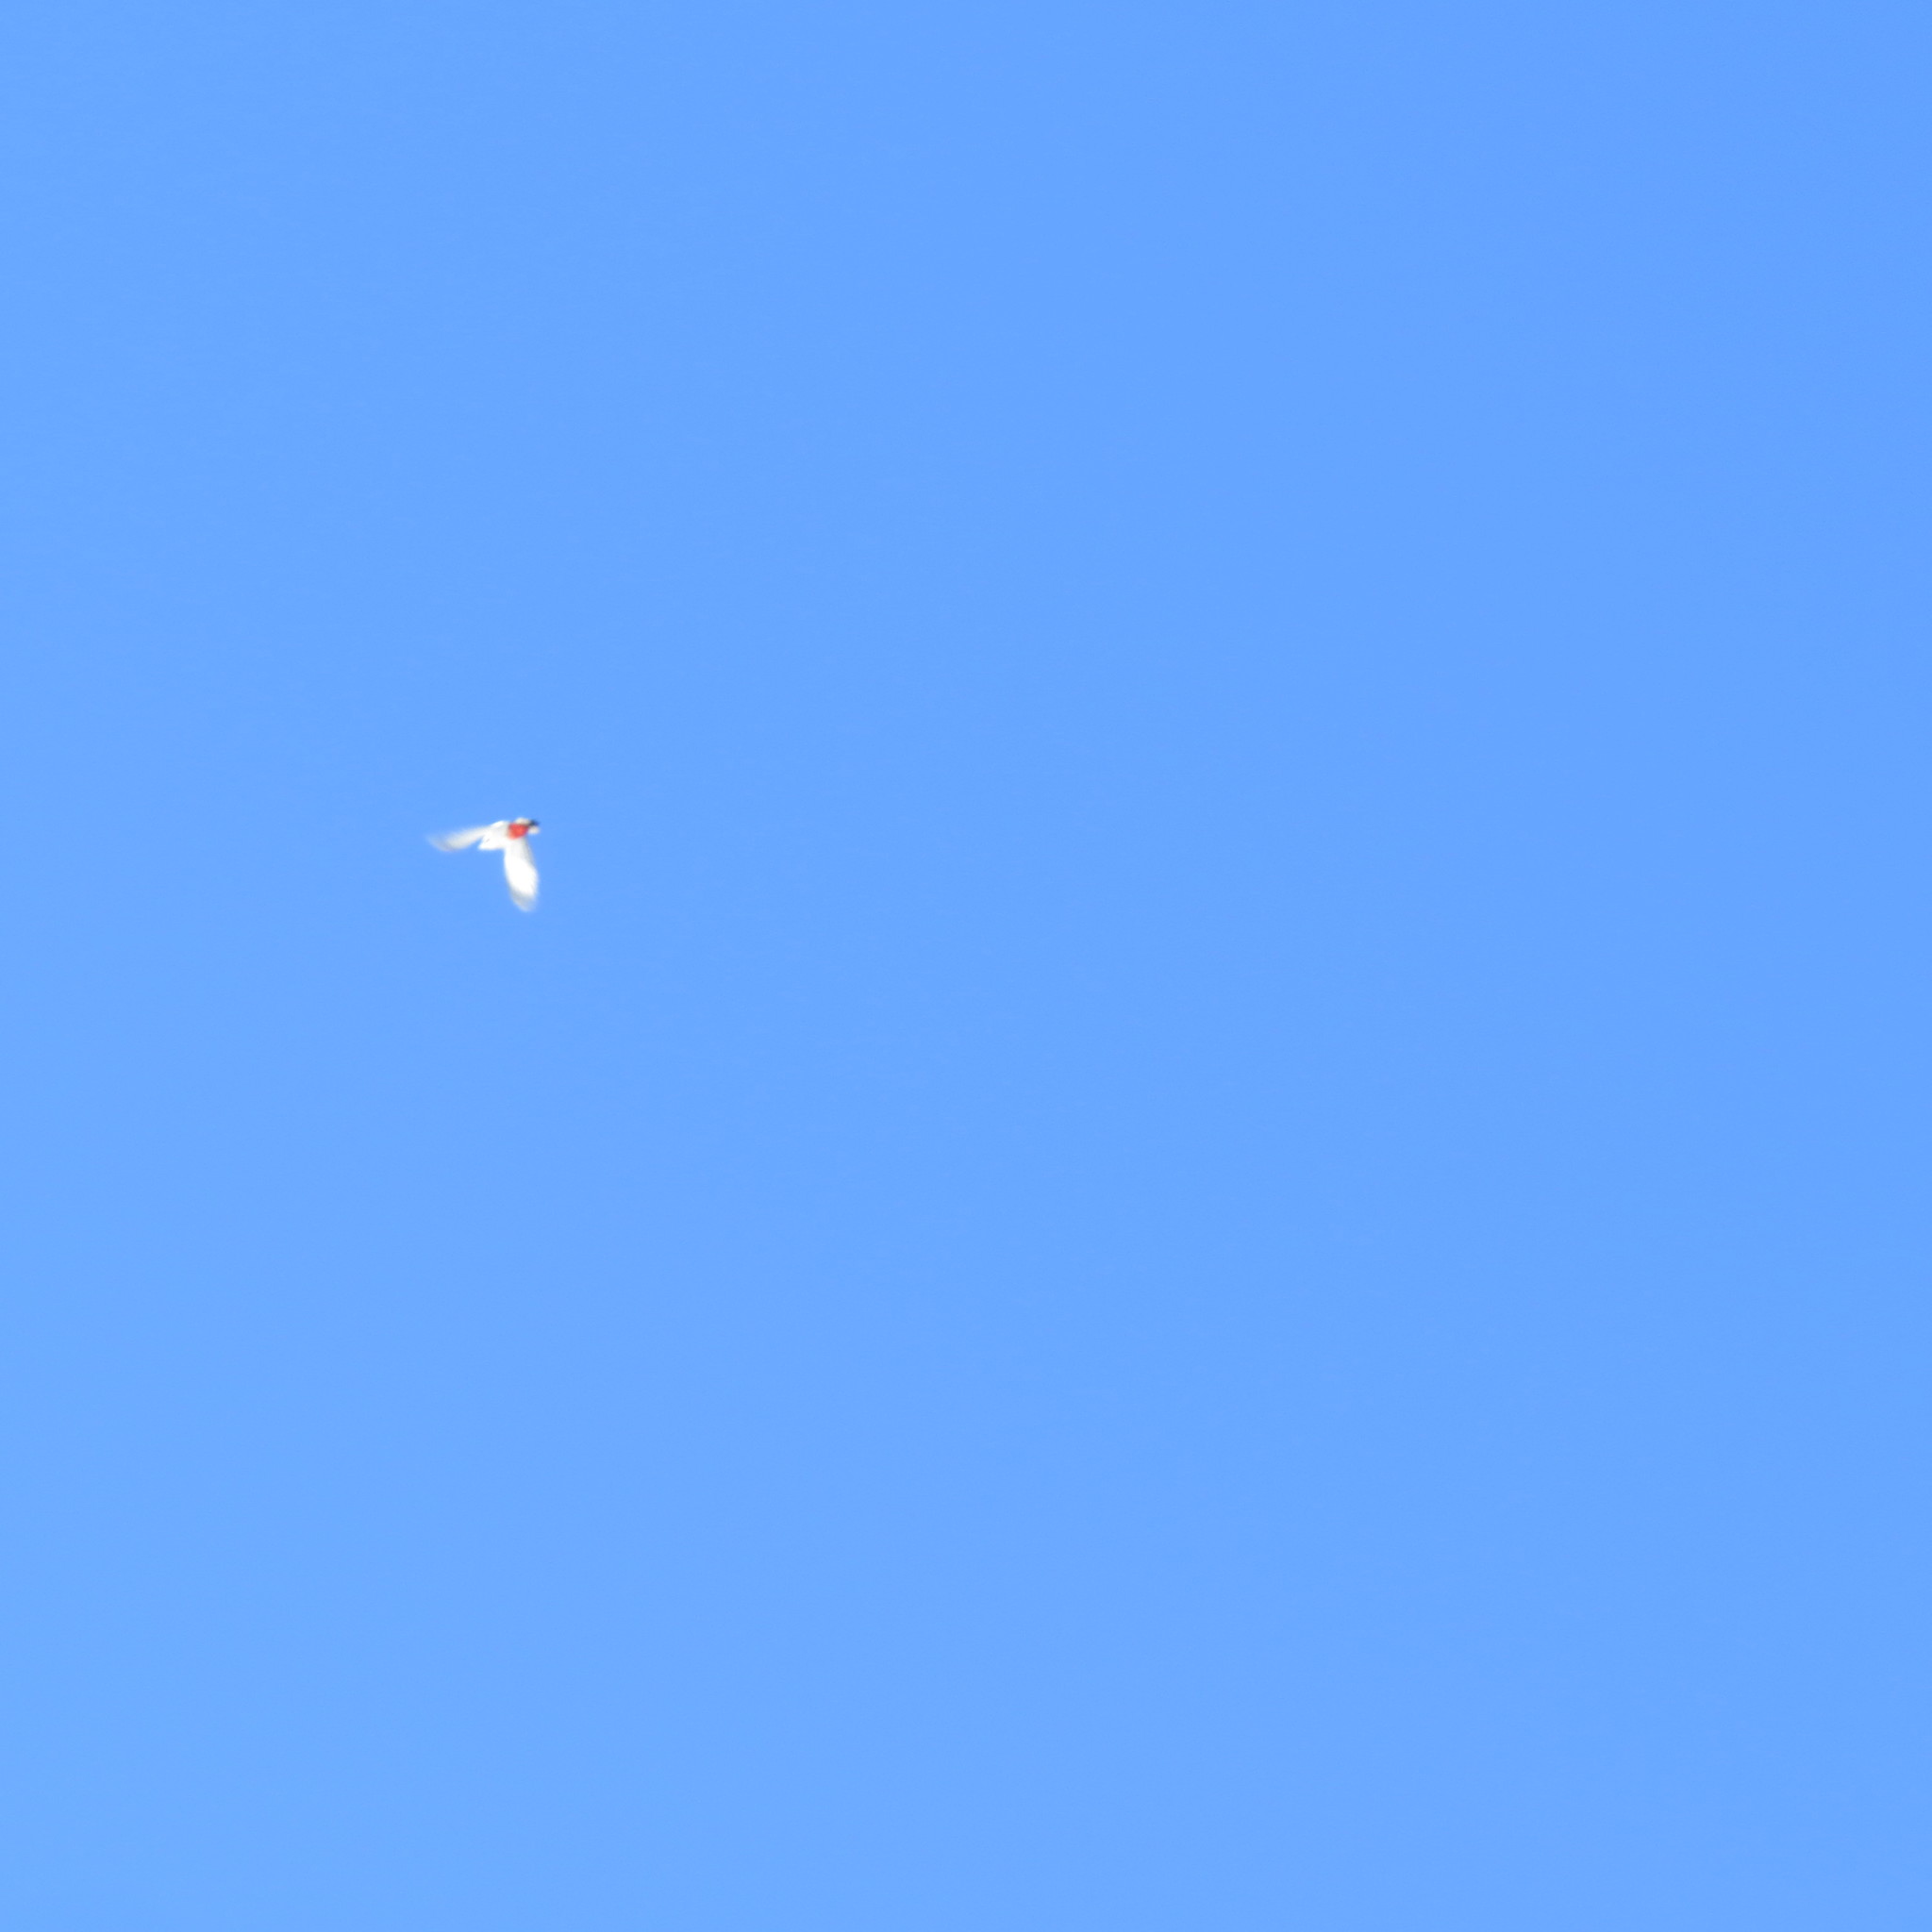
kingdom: Animalia
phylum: Chordata
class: Aves
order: Piciformes
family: Picidae
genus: Dendrocopos
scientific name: Dendrocopos major
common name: Great spotted woodpecker
